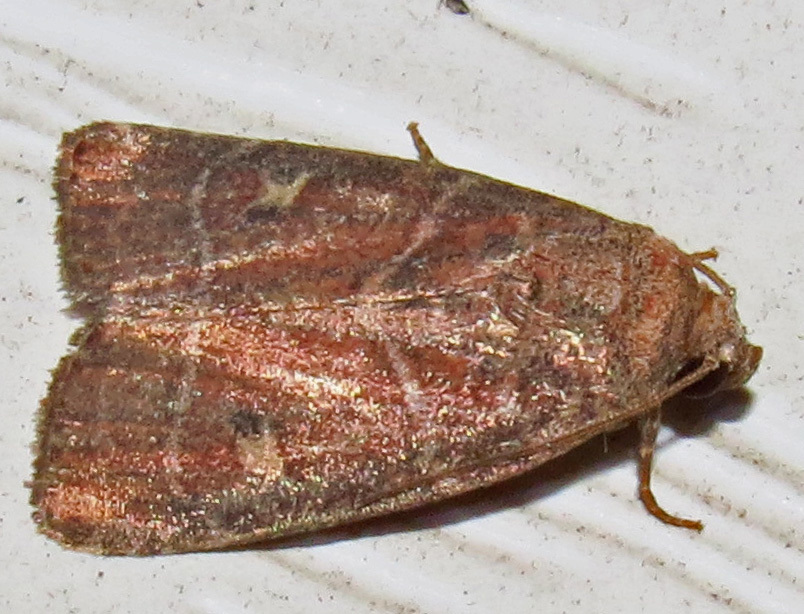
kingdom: Animalia
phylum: Arthropoda
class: Insecta
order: Lepidoptera
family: Noctuidae
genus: Elaphria
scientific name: Elaphria grata
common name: Grateful midget moth
